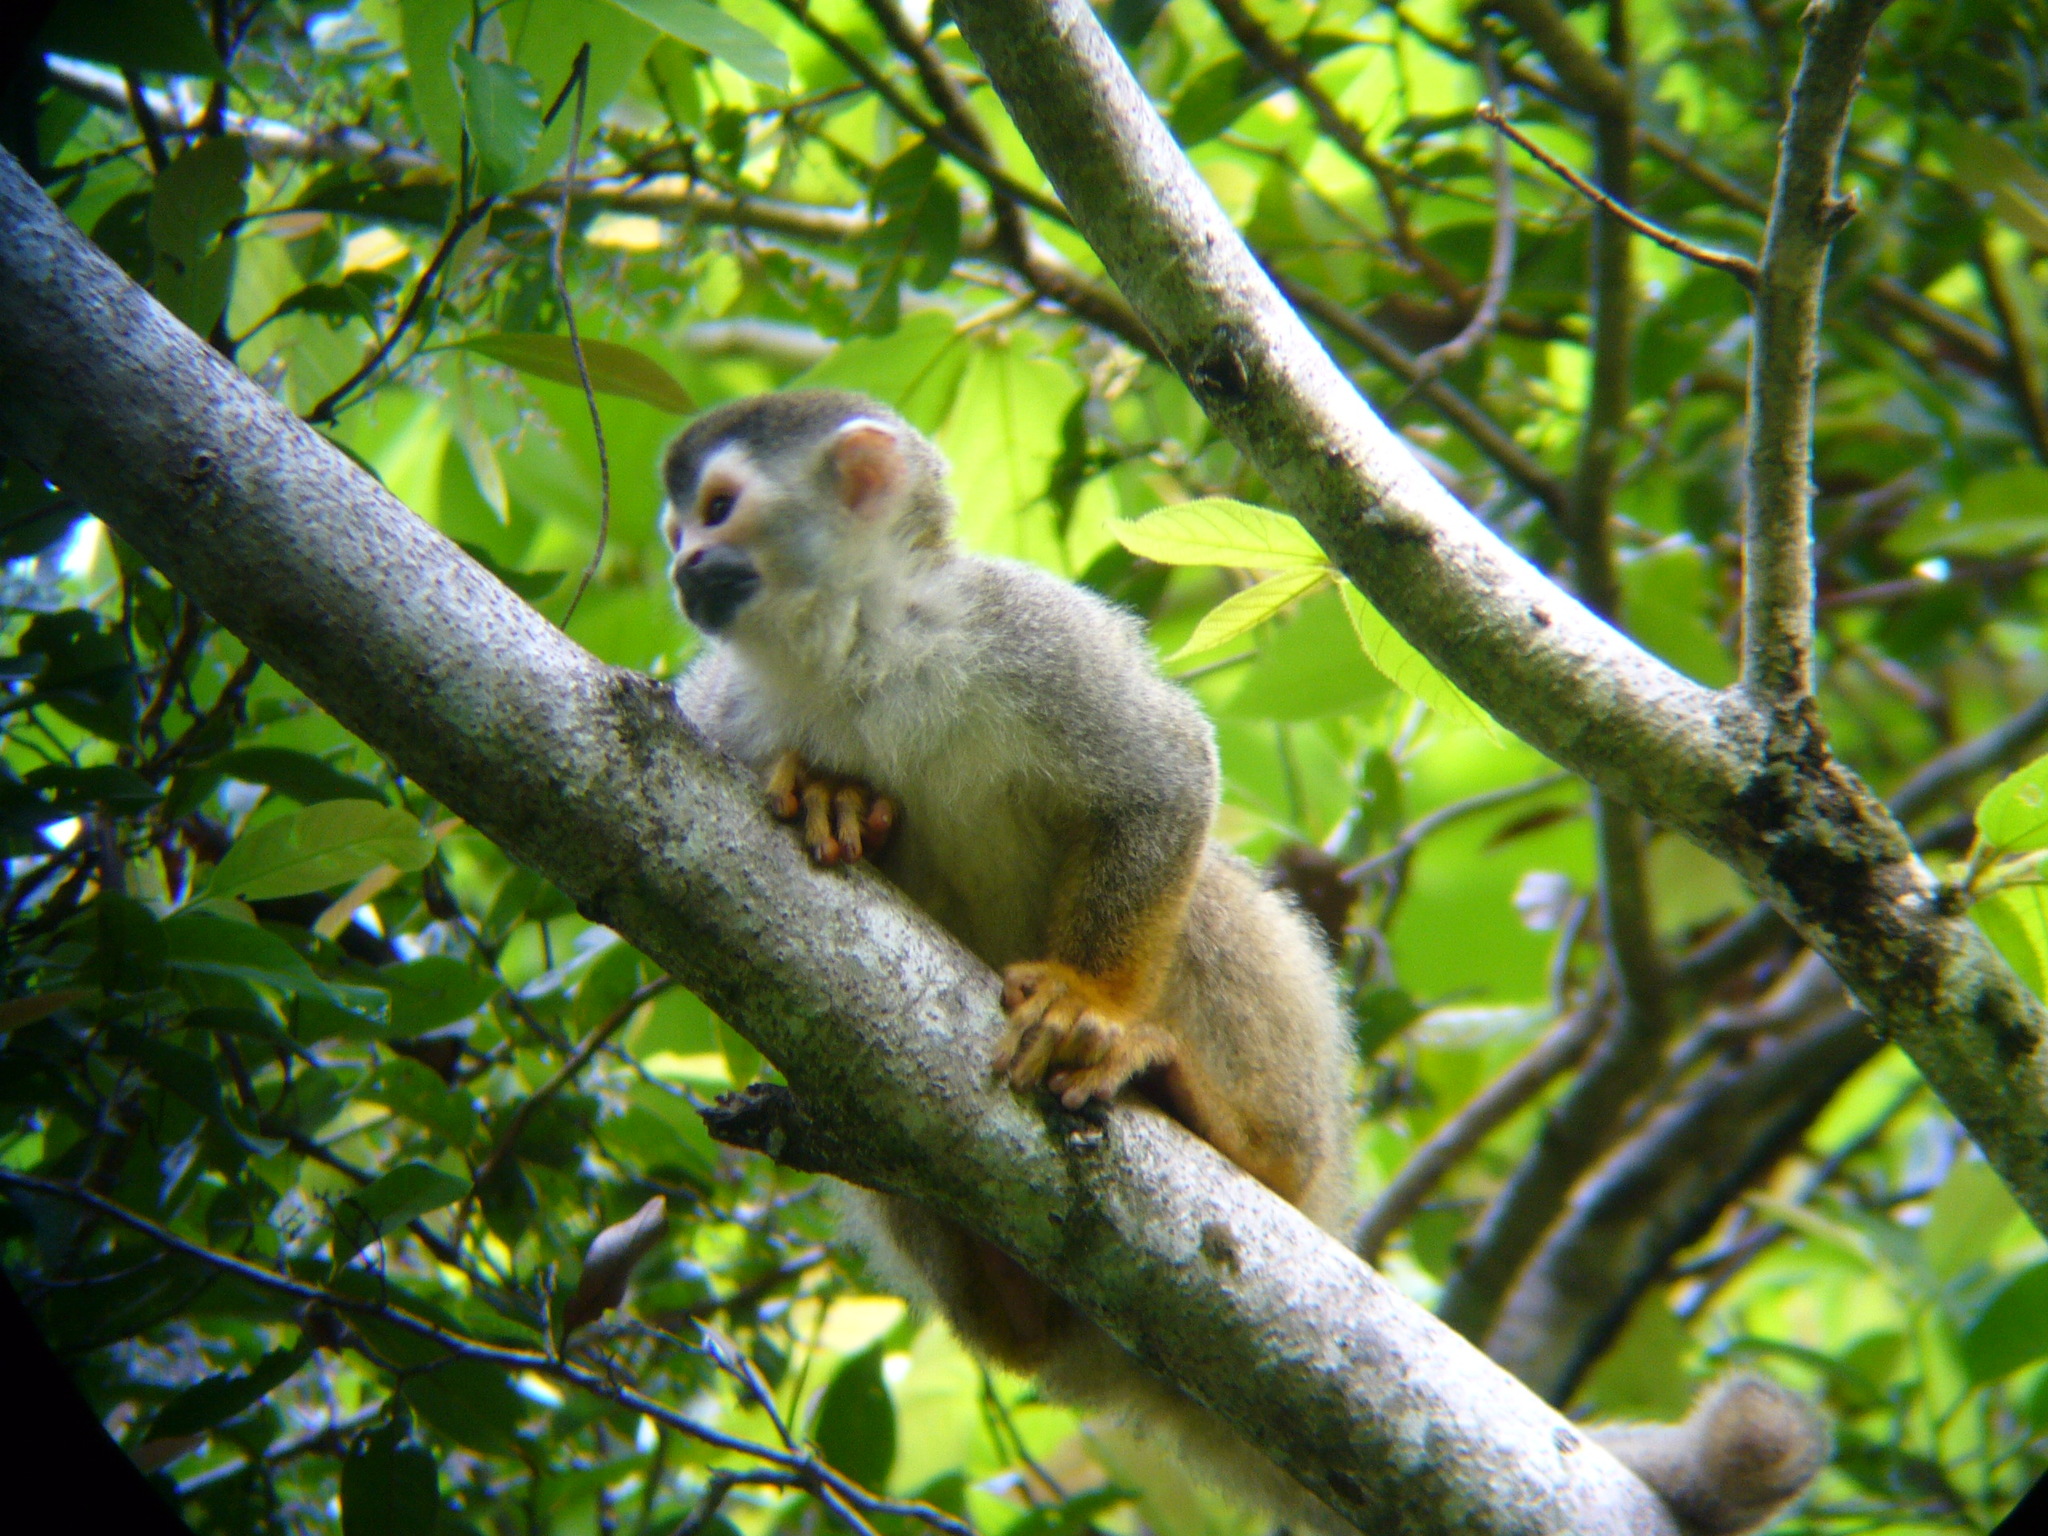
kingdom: Animalia
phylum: Chordata
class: Mammalia
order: Primates
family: Cebidae
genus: Saimiri
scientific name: Saimiri oerstedii
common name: Central american squirrel monkey
